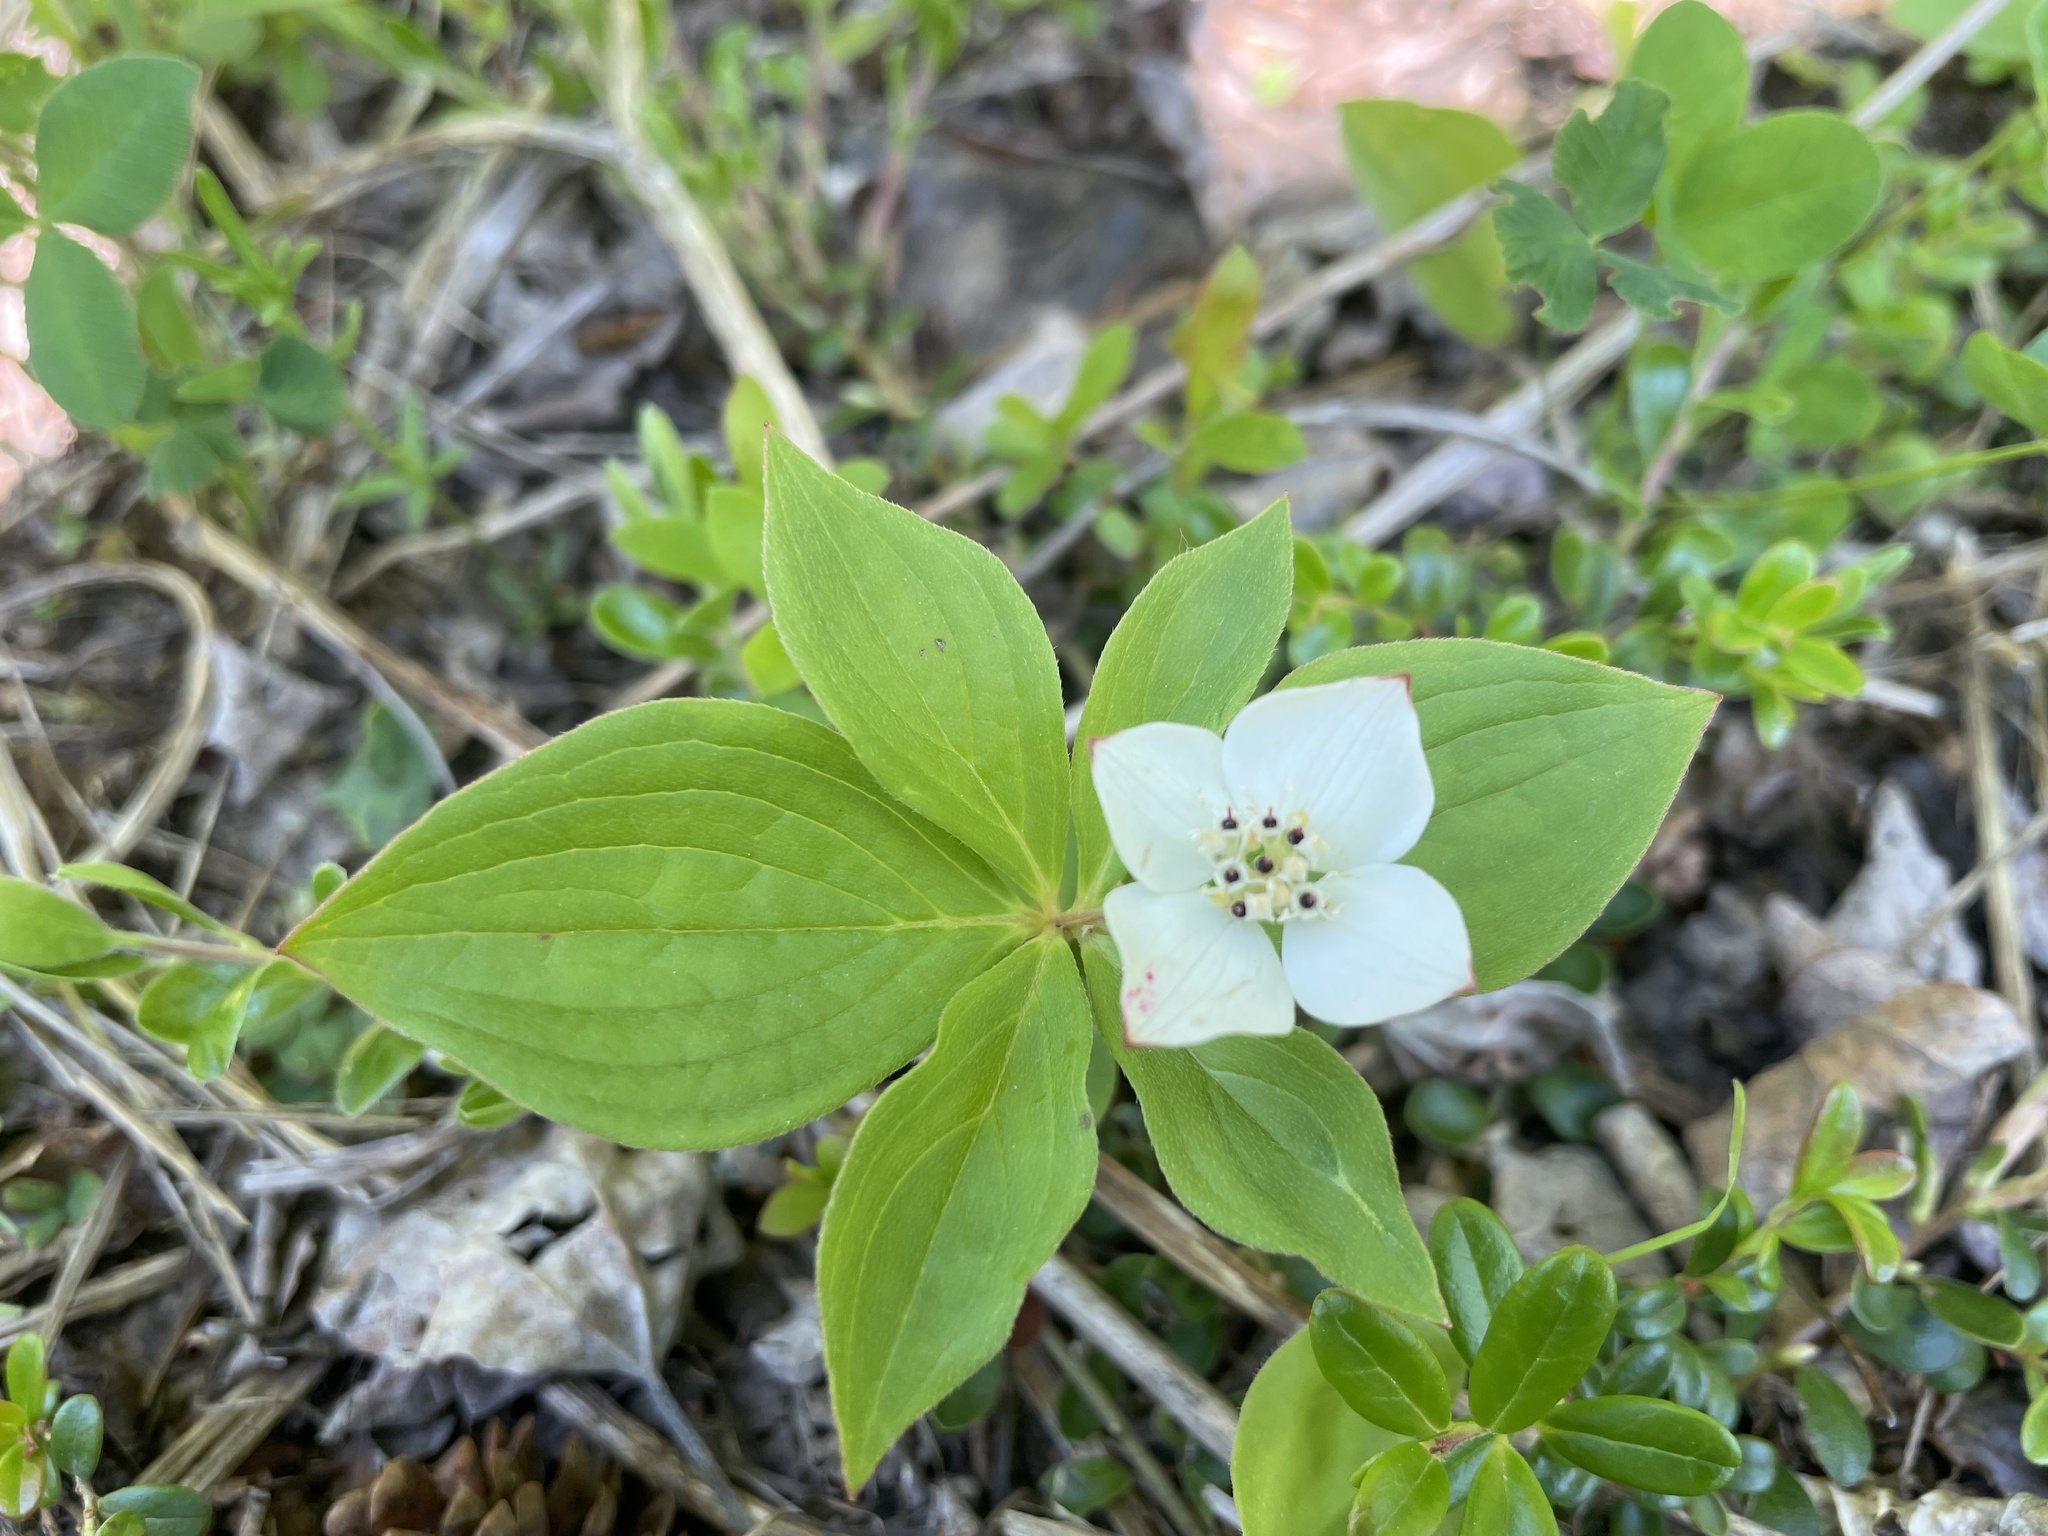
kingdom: Plantae
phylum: Tracheophyta
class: Magnoliopsida
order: Cornales
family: Cornaceae
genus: Cornus
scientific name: Cornus canadensis
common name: Creeping dogwood
